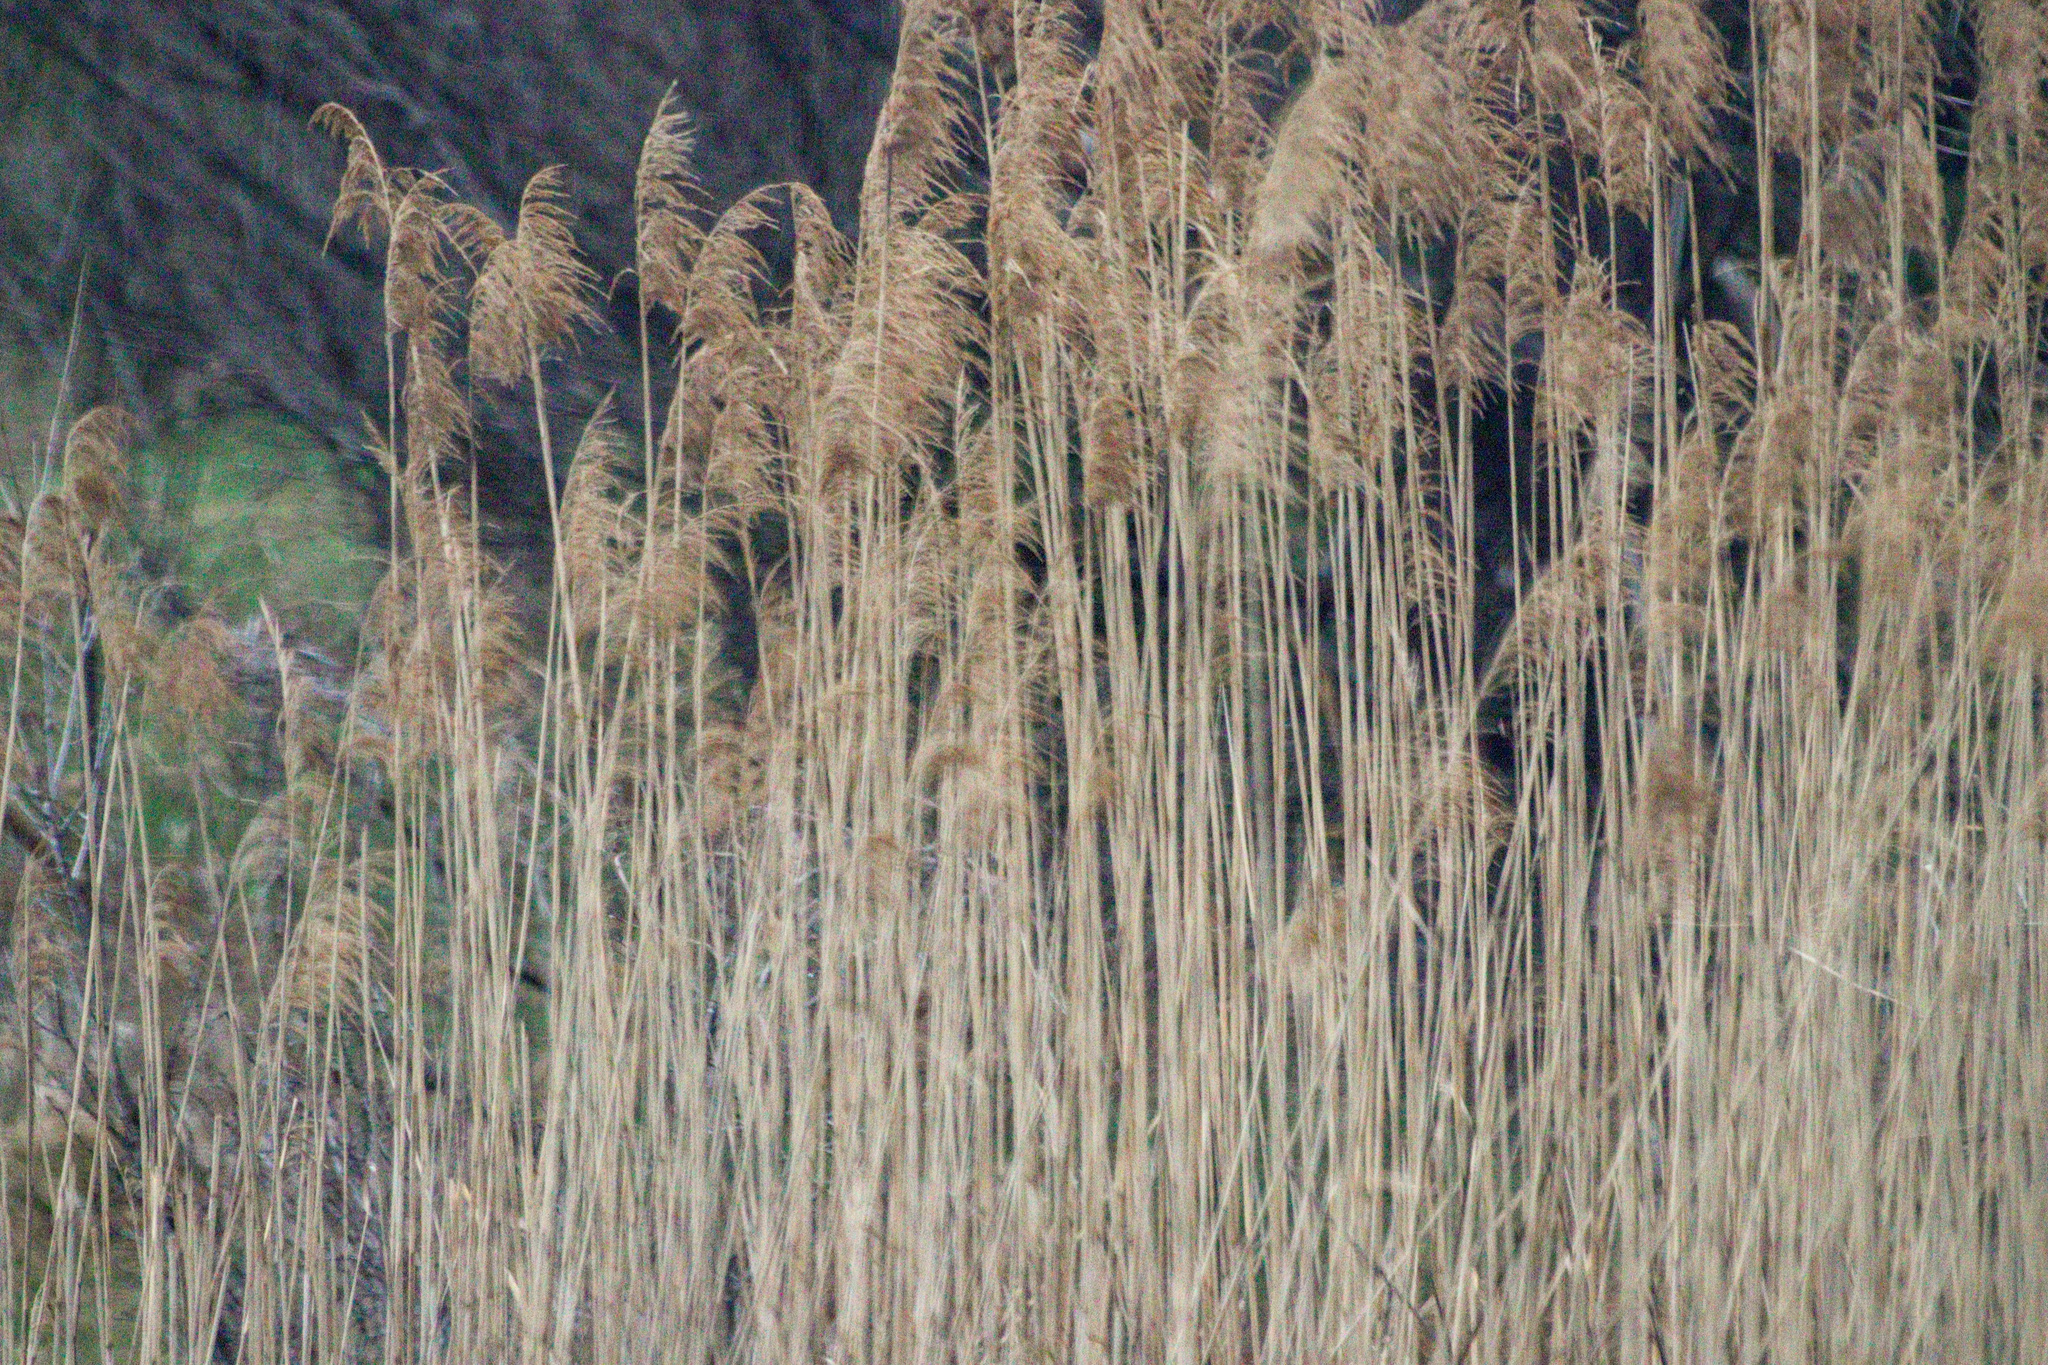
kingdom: Plantae
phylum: Tracheophyta
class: Liliopsida
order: Poales
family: Poaceae
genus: Phragmites
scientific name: Phragmites australis
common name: Common reed
